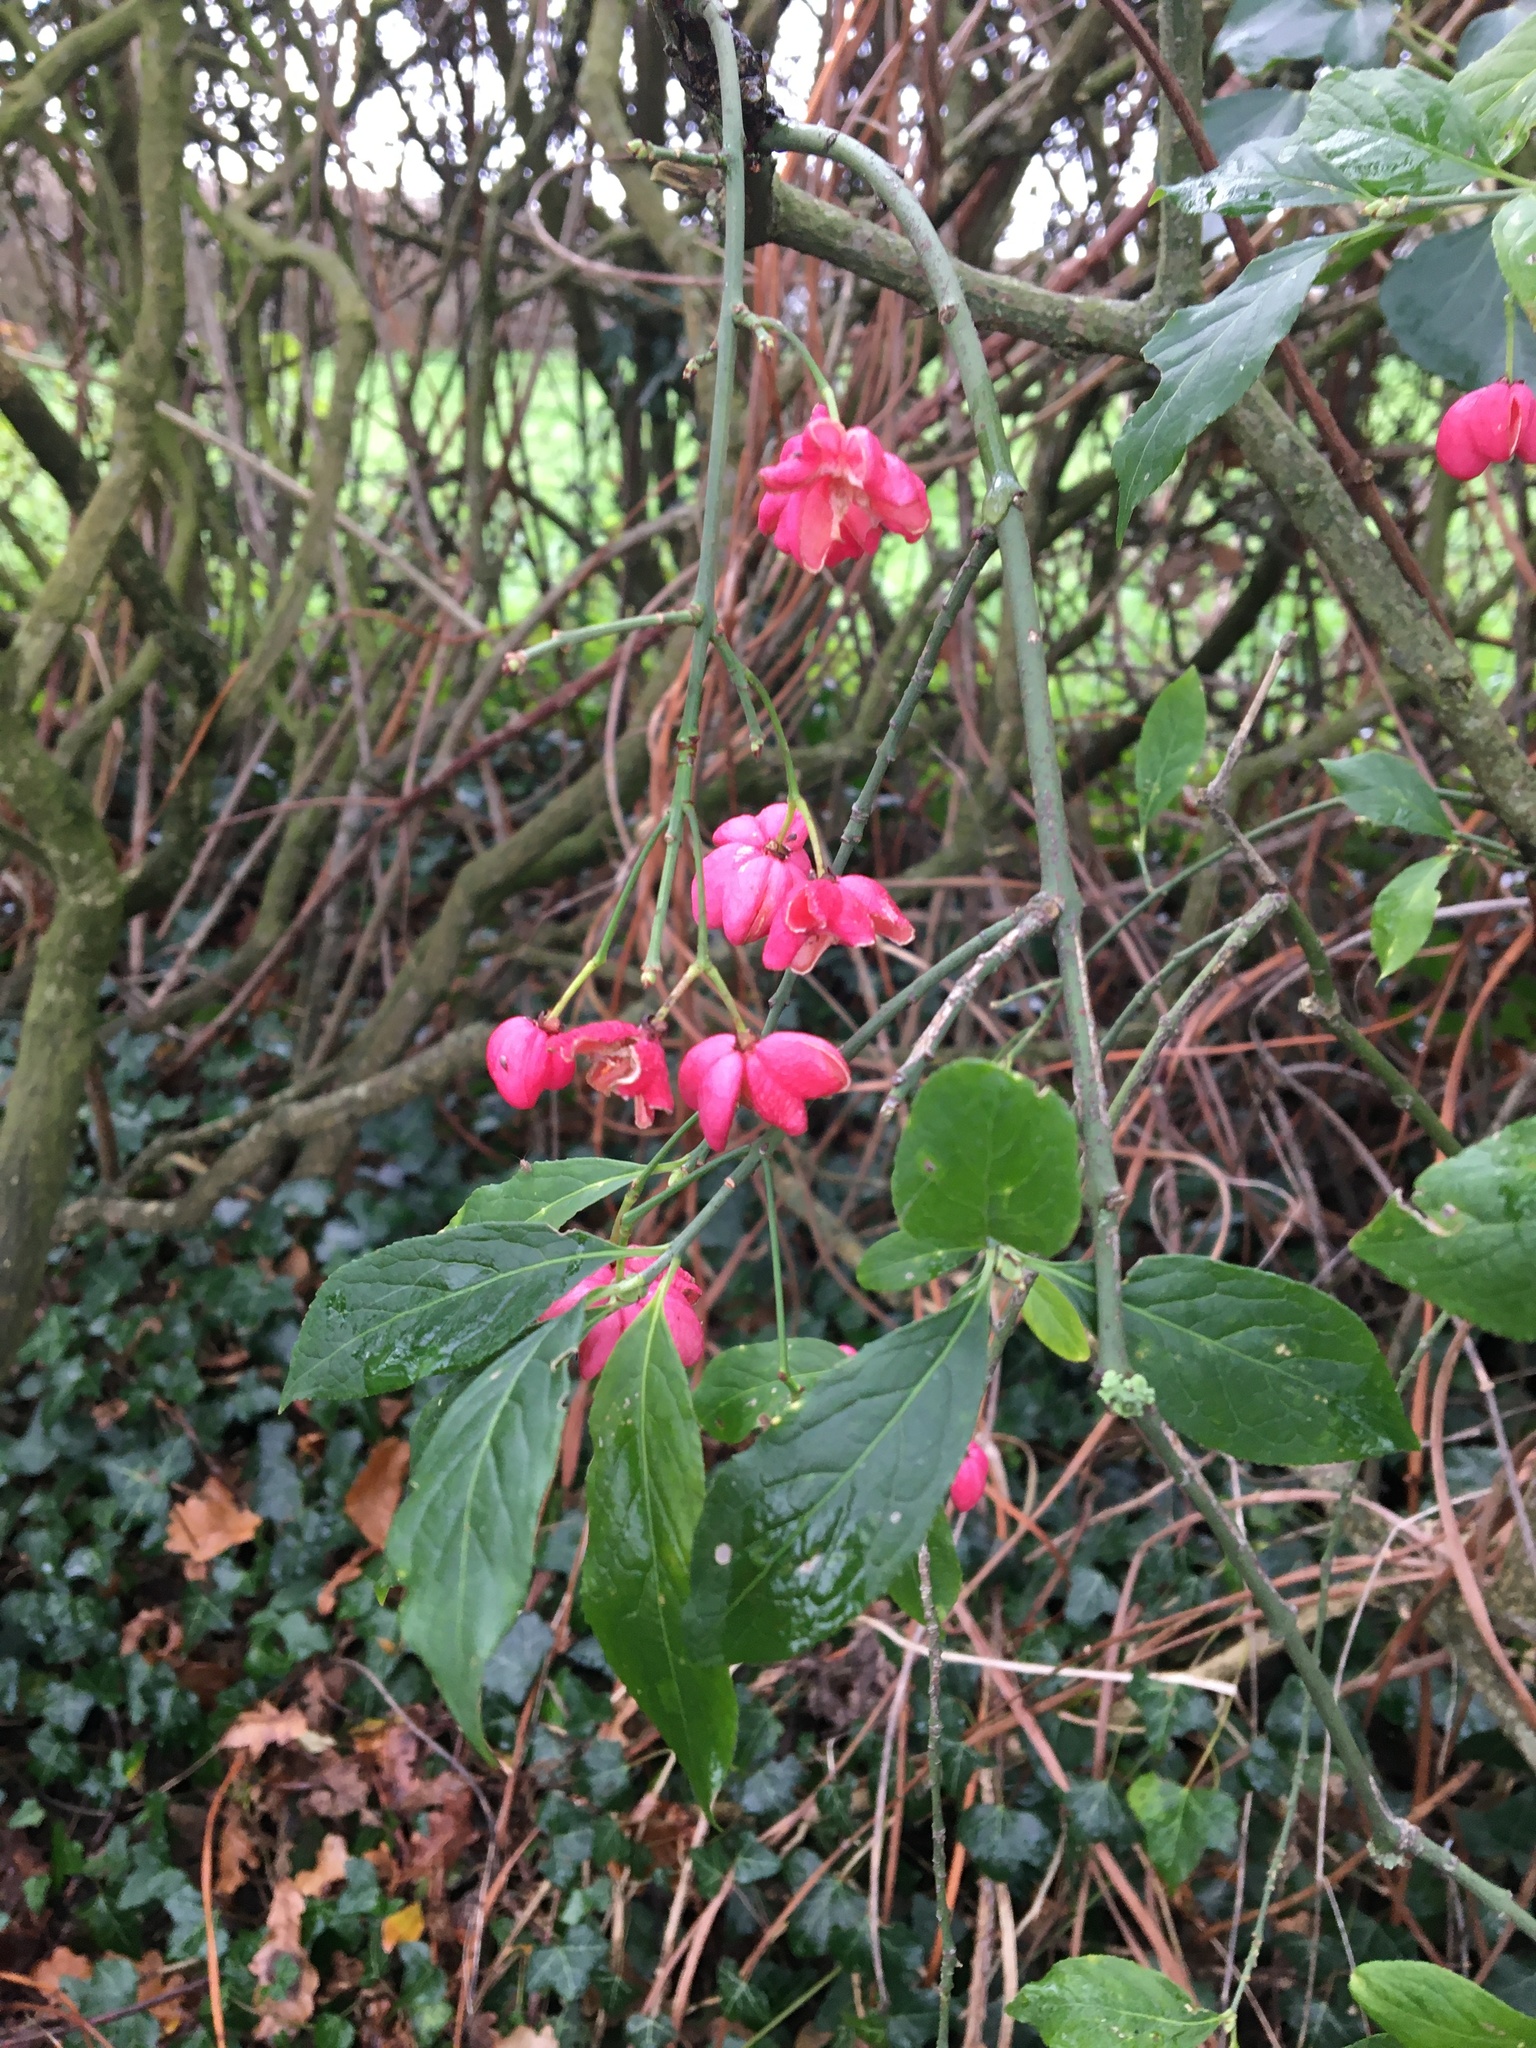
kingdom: Plantae
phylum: Tracheophyta
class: Magnoliopsida
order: Celastrales
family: Celastraceae
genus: Euonymus
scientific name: Euonymus europaeus
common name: Spindle
